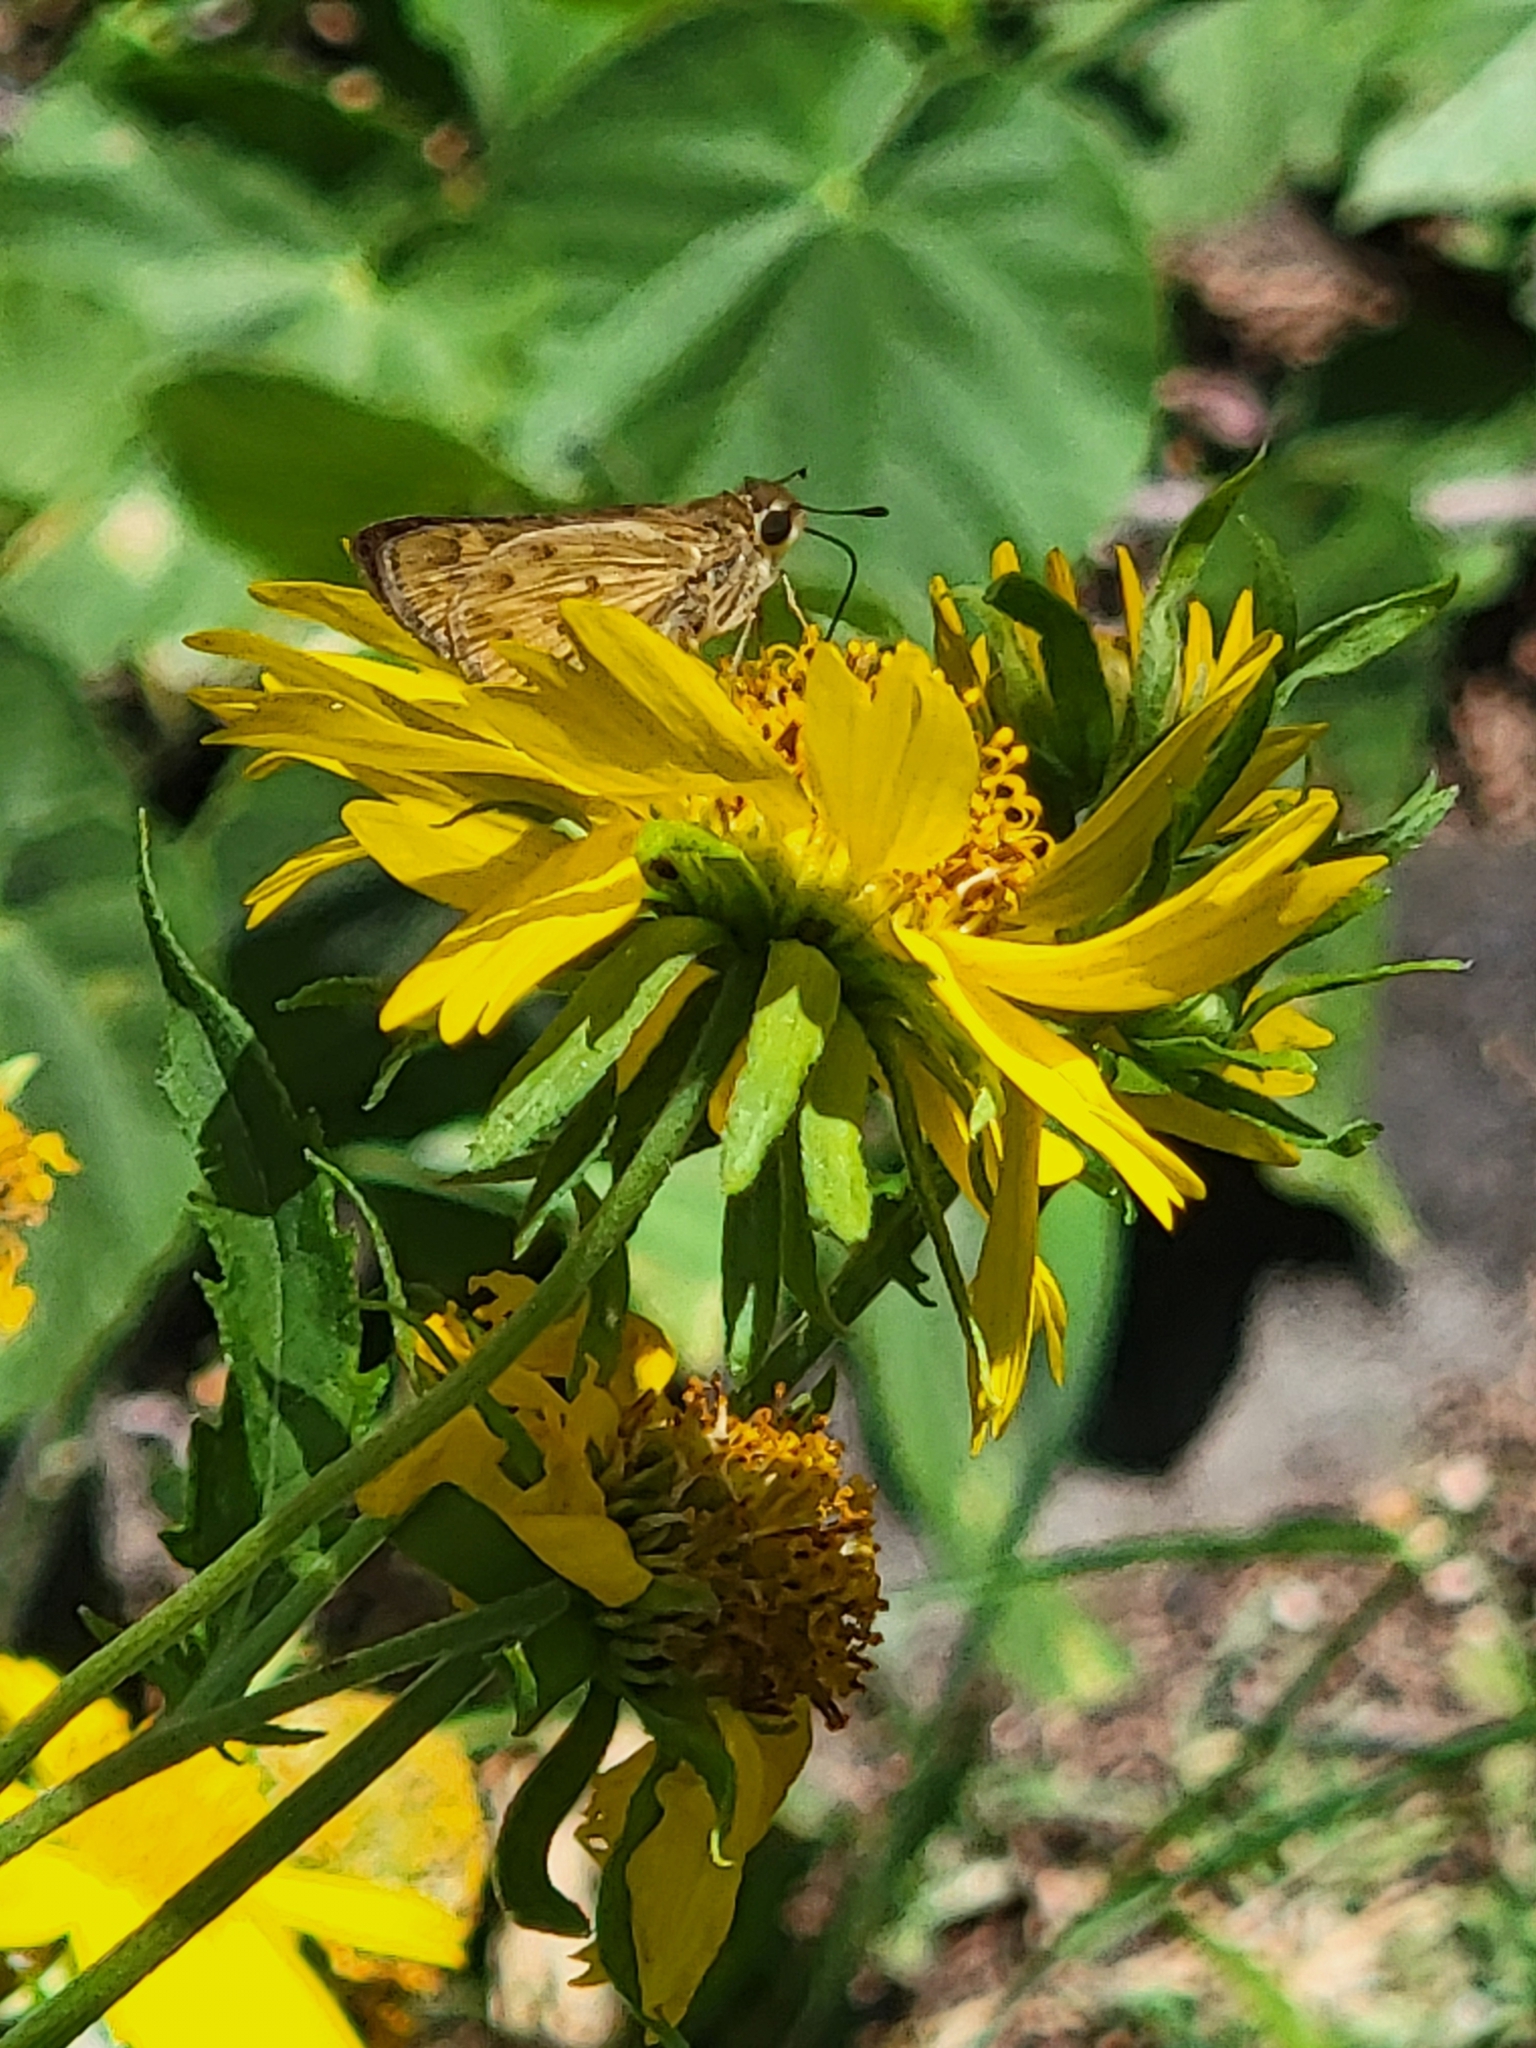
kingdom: Animalia
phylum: Arthropoda
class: Insecta
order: Lepidoptera
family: Hesperiidae
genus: Hylephila
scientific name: Hylephila phyleus
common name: Fiery skipper
